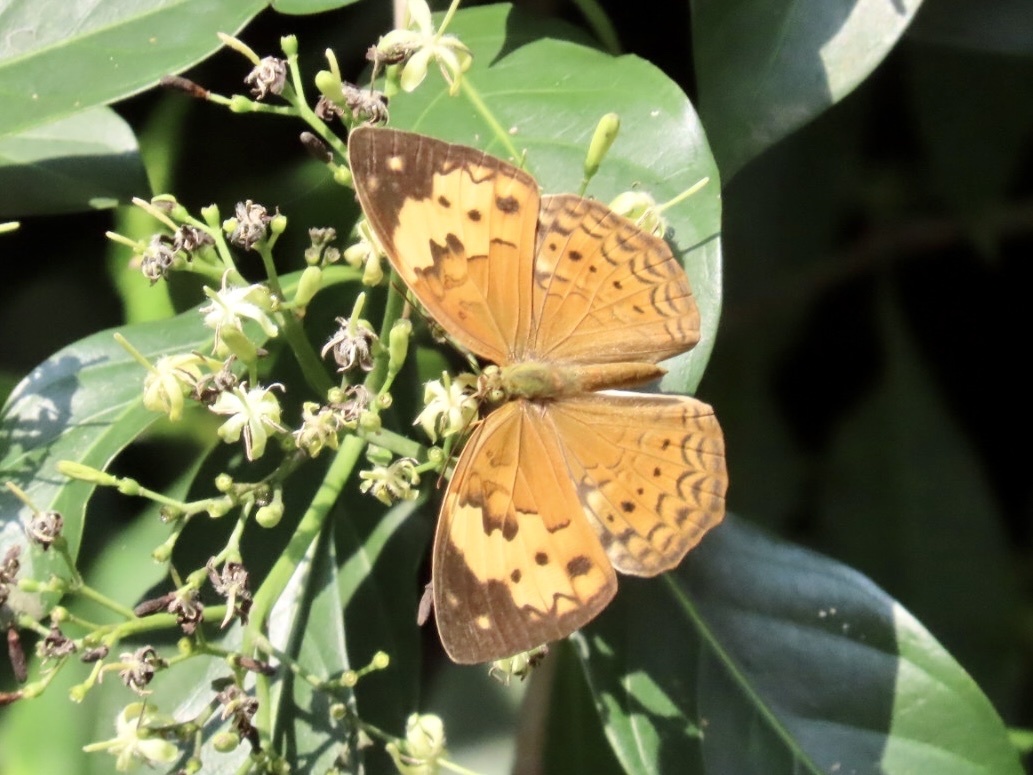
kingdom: Animalia
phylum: Arthropoda
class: Insecta
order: Lepidoptera
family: Nymphalidae
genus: Cupha
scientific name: Cupha erymanthis
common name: Rustic
